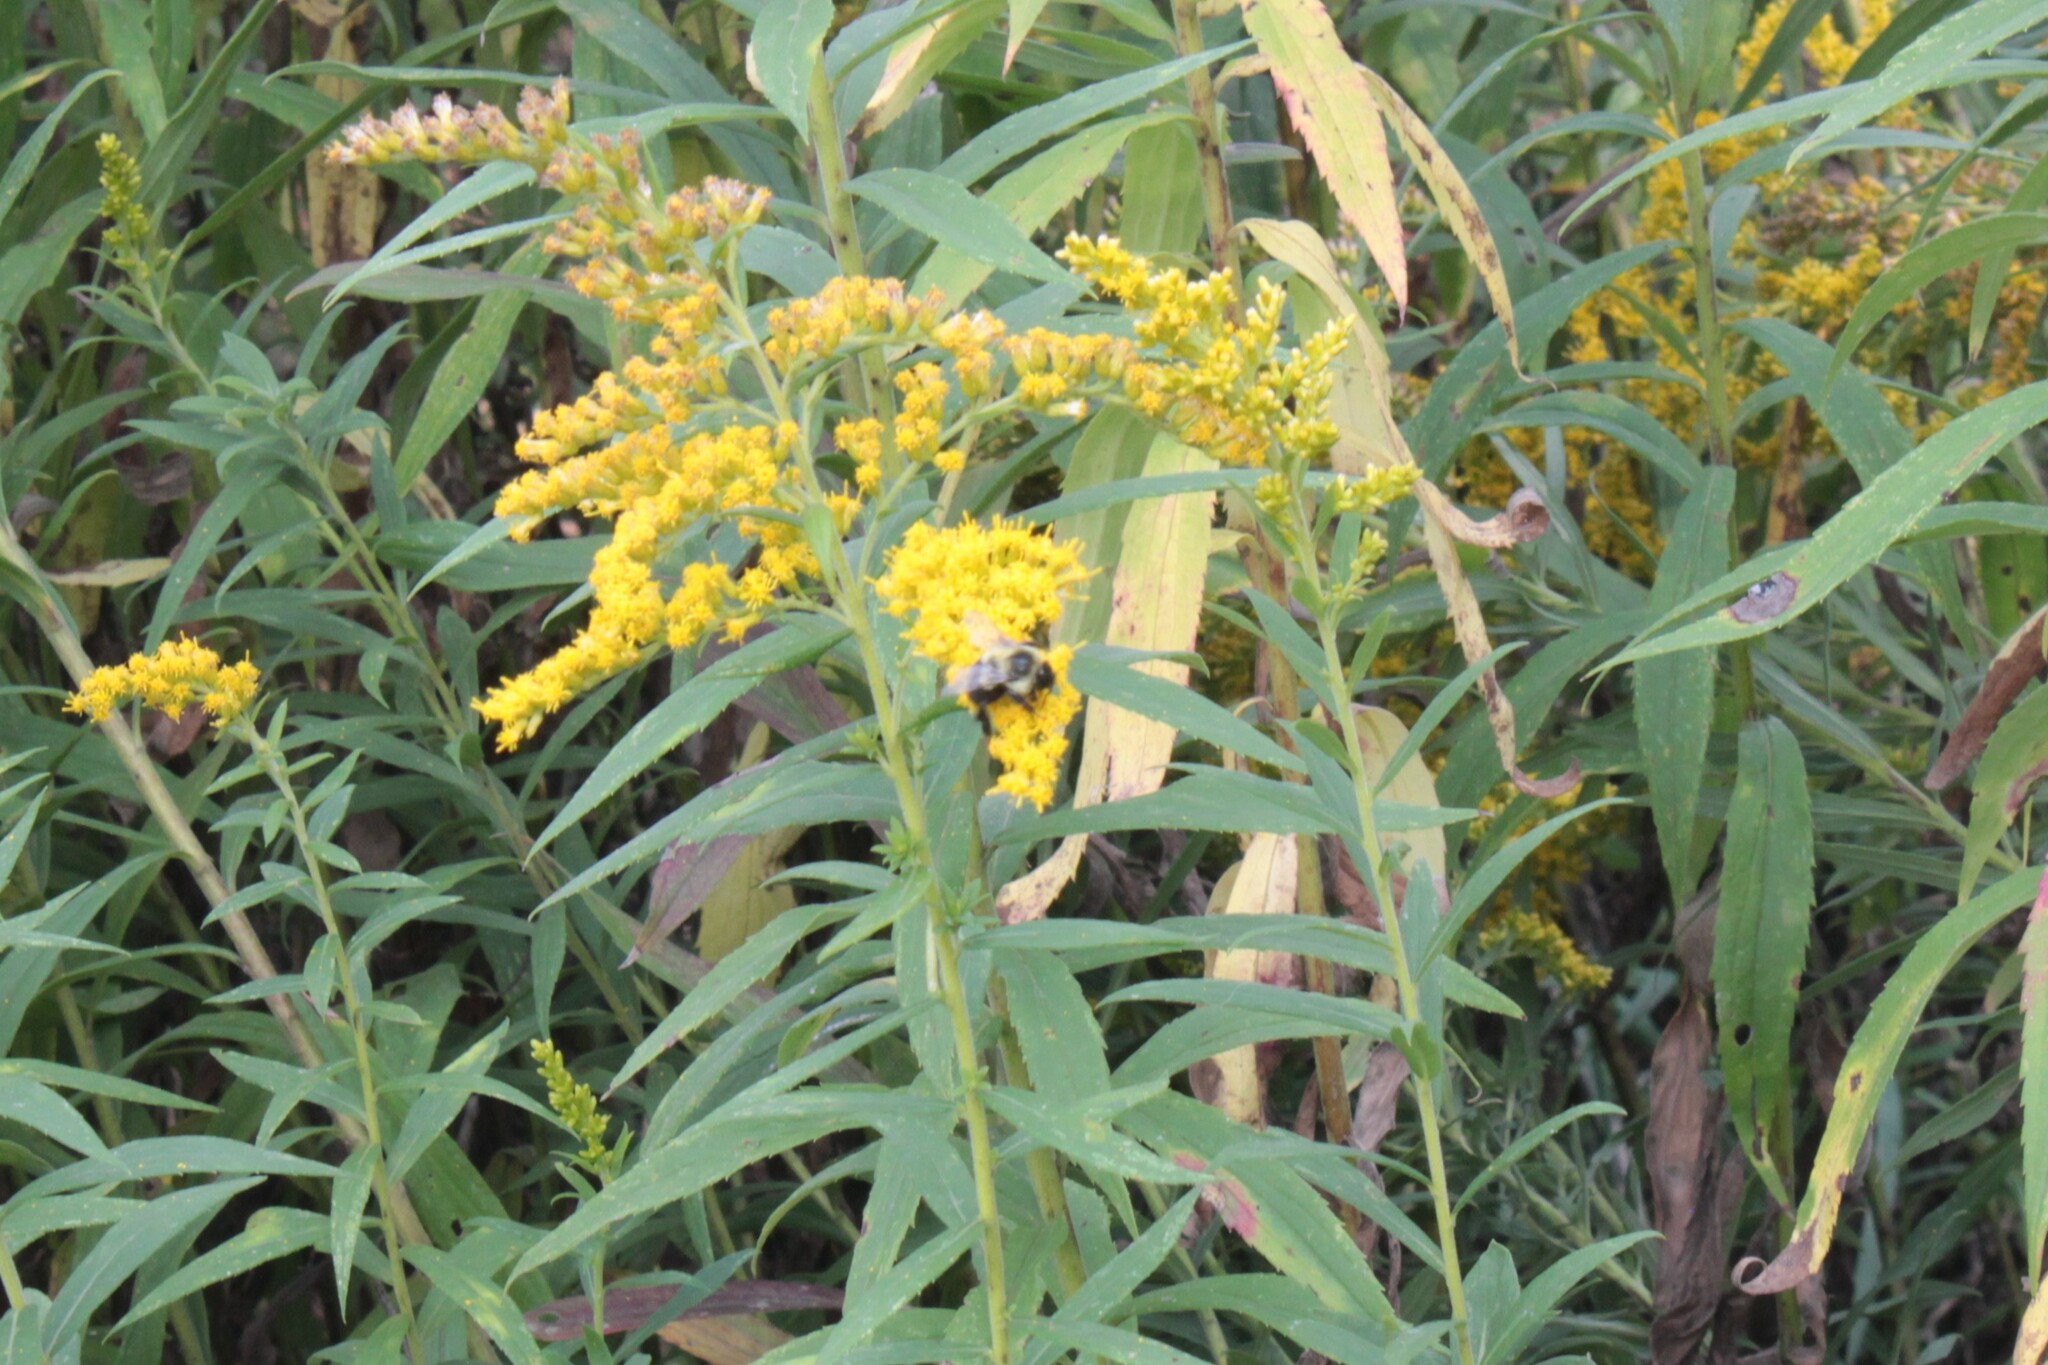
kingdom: Animalia
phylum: Arthropoda
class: Insecta
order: Hymenoptera
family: Apidae
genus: Bombus
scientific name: Bombus impatiens
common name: Common eastern bumble bee
